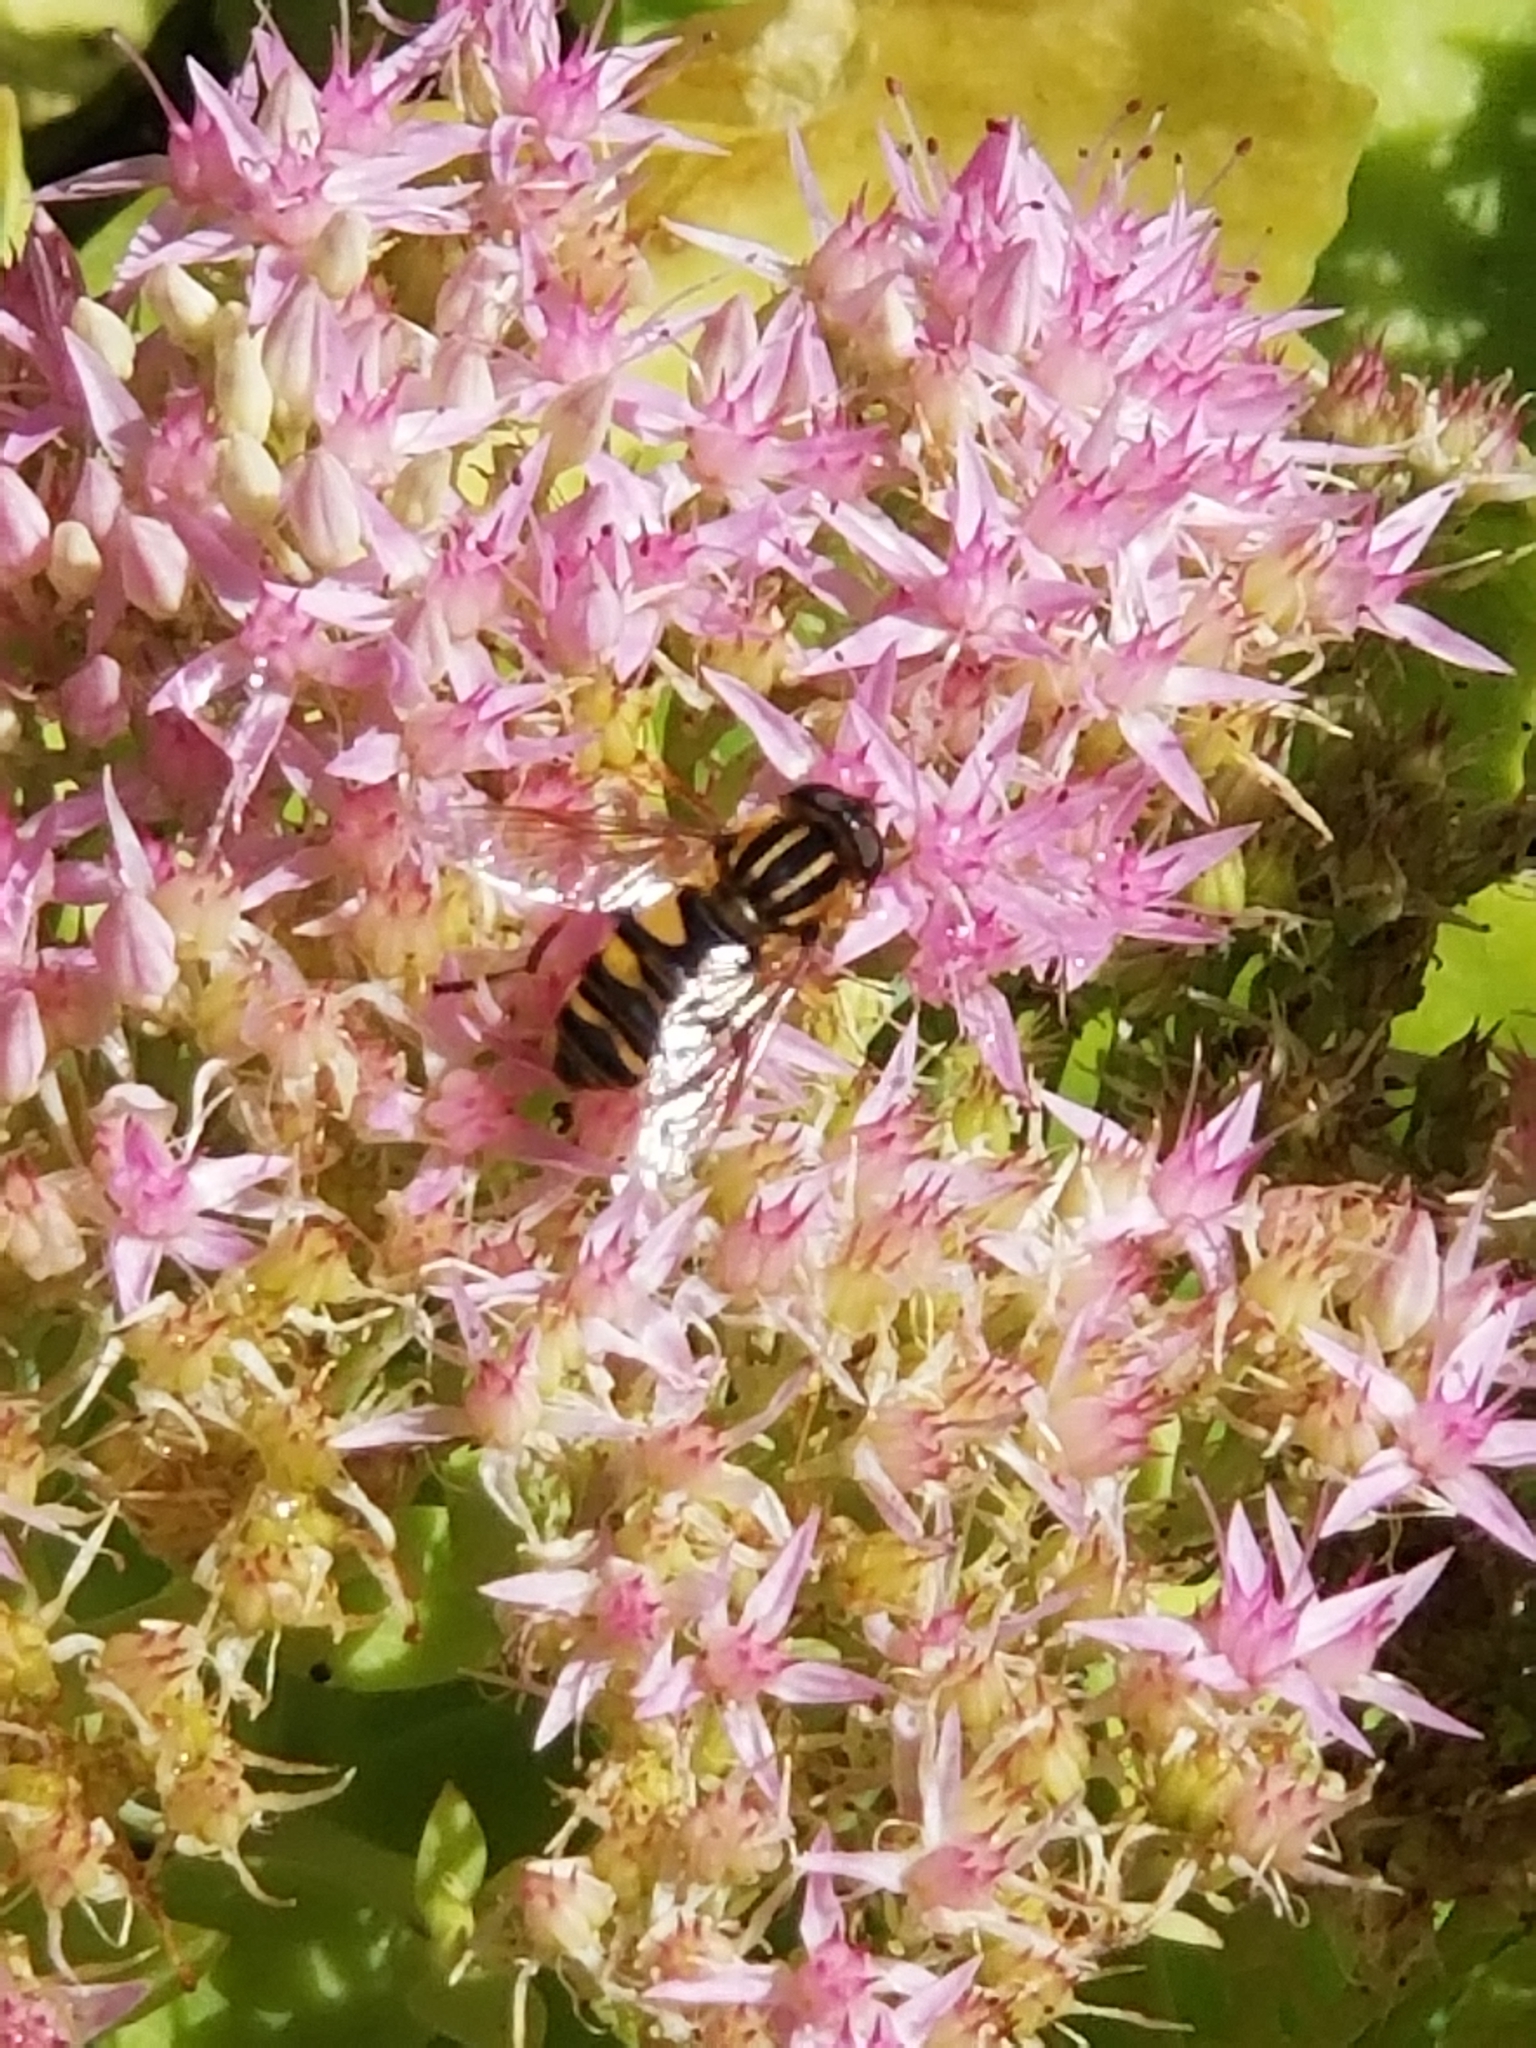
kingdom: Animalia
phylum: Arthropoda
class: Insecta
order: Diptera
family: Syrphidae
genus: Helophilus
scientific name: Helophilus fasciatus
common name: Narrow-headed marsh fly
